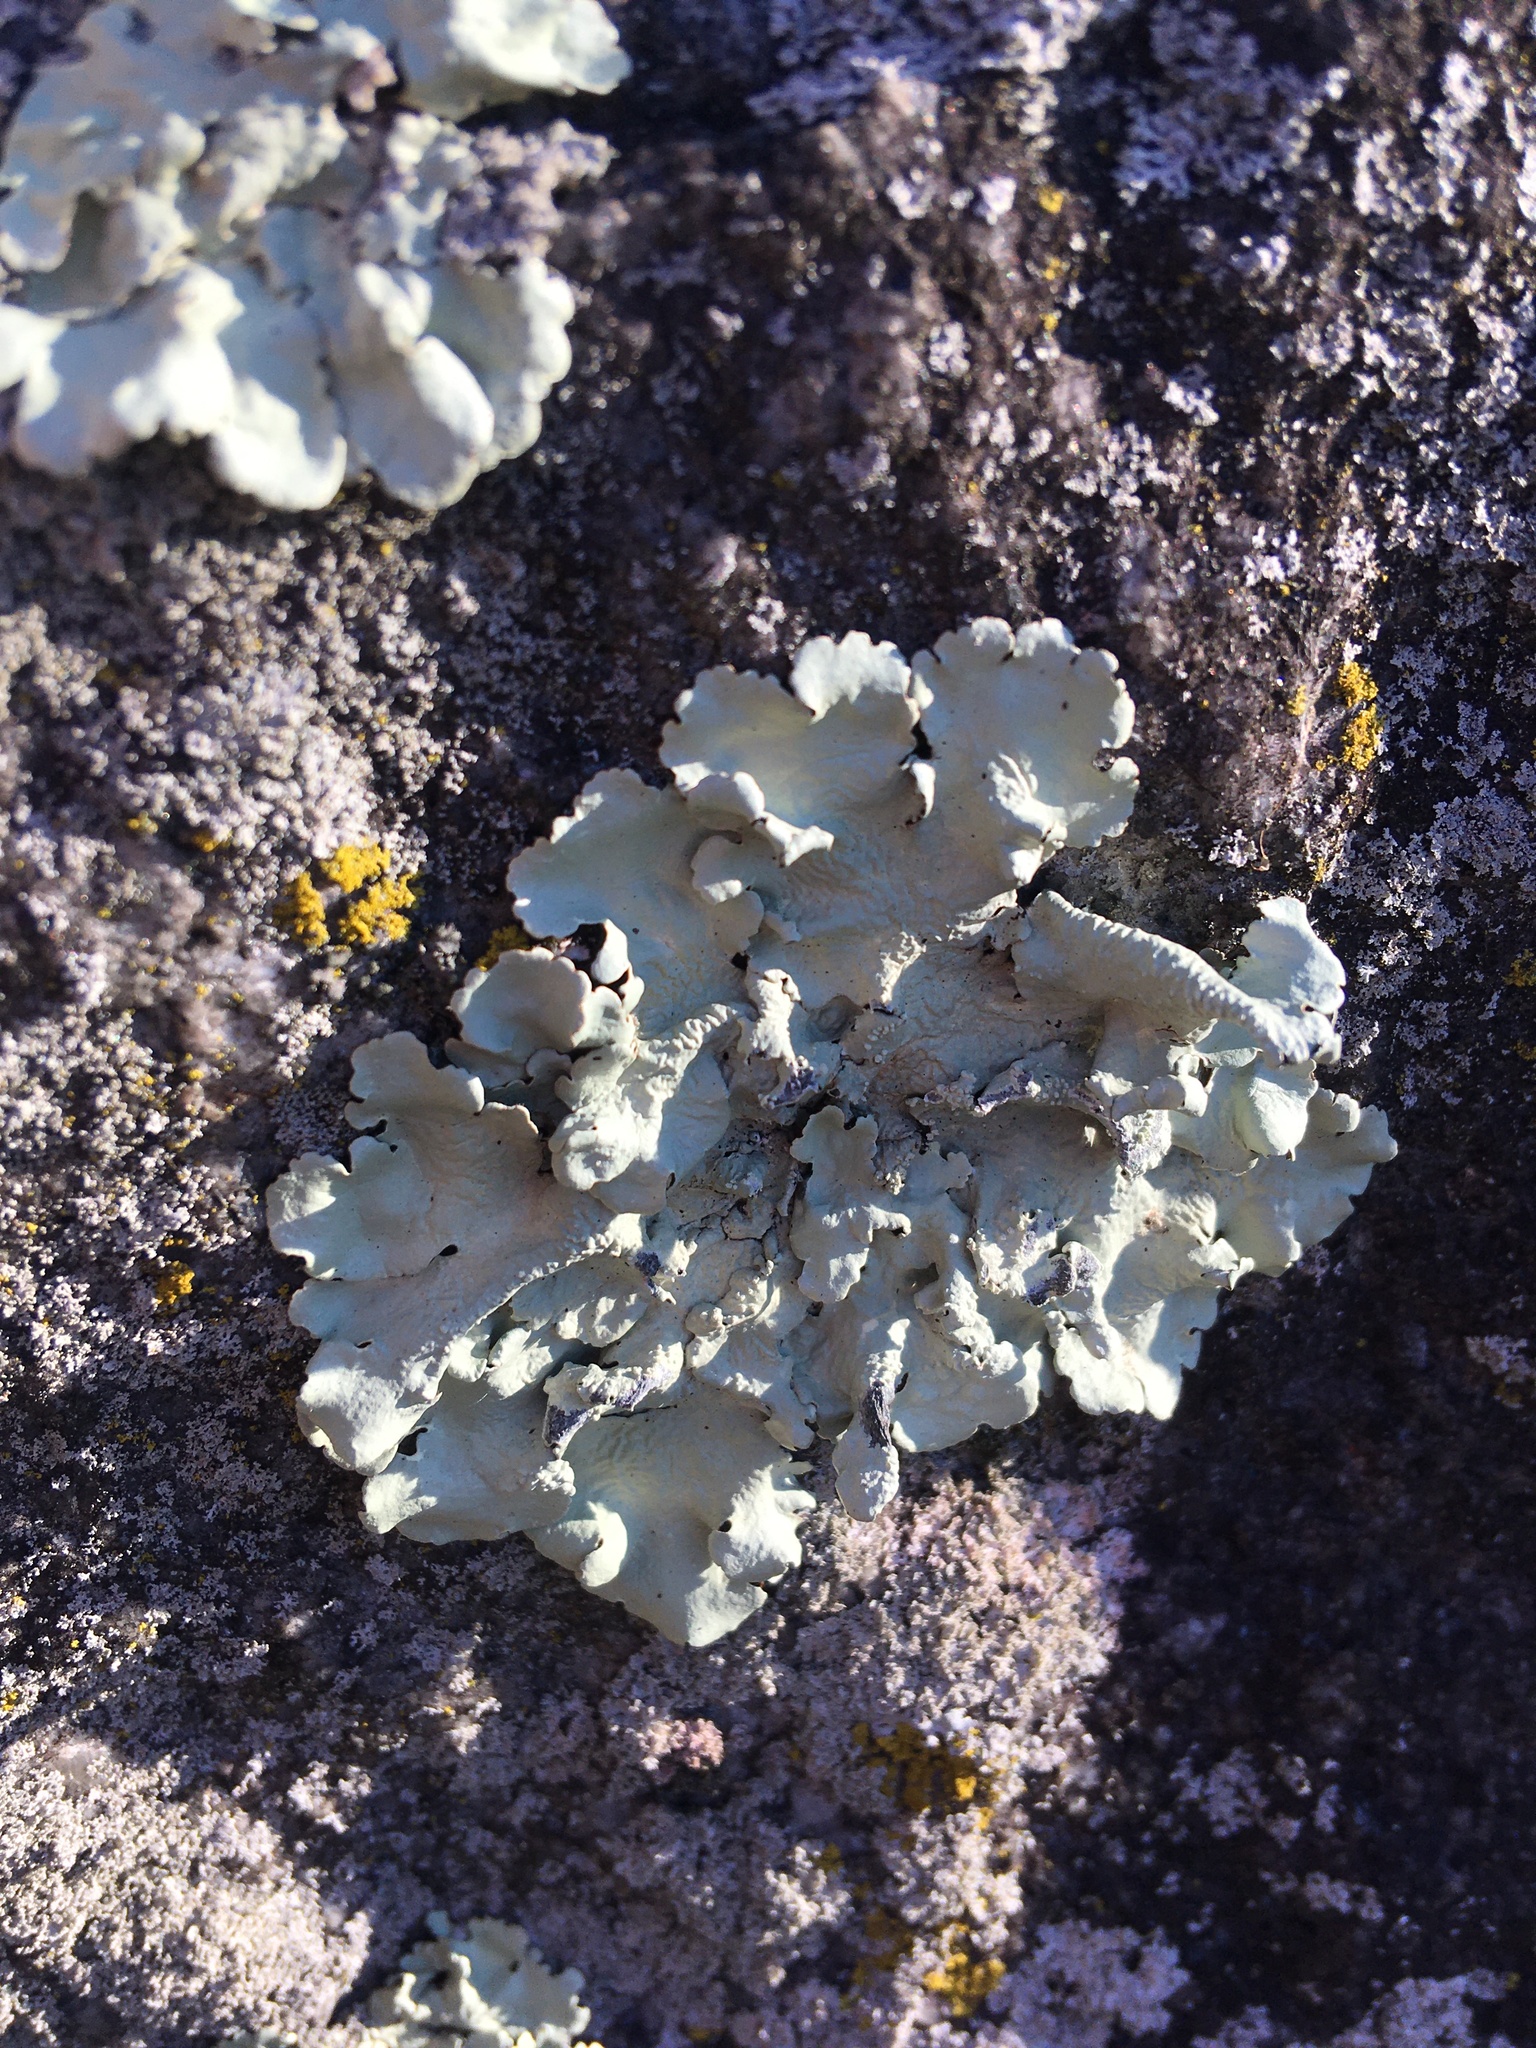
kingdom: Fungi
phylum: Ascomycota
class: Lecanoromycetes
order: Lecanorales
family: Parmeliaceae
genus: Flavoparmelia
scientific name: Flavoparmelia caperata
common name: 40-mile per hour lichen
